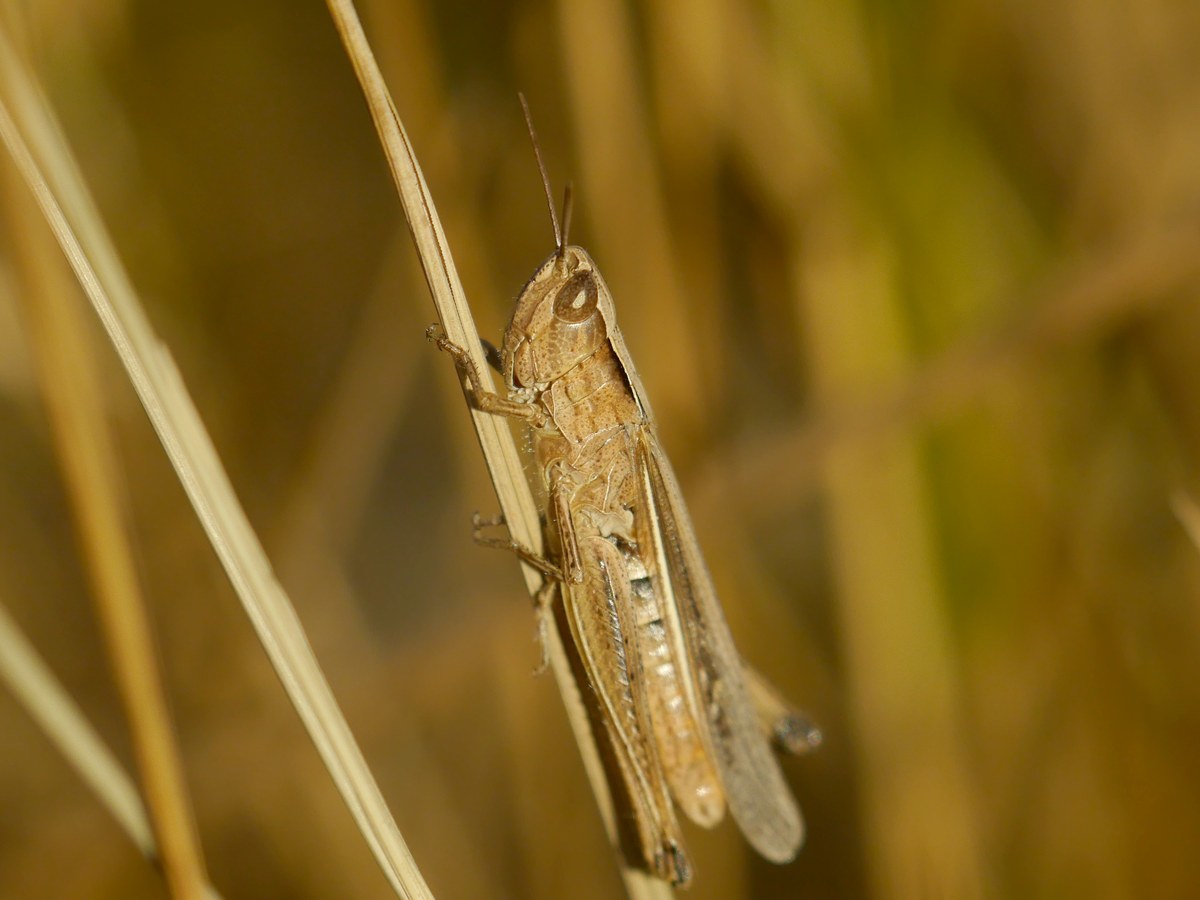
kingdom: Animalia
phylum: Arthropoda
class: Insecta
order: Orthoptera
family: Acrididae
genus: Chorthippus
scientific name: Chorthippus loratus
